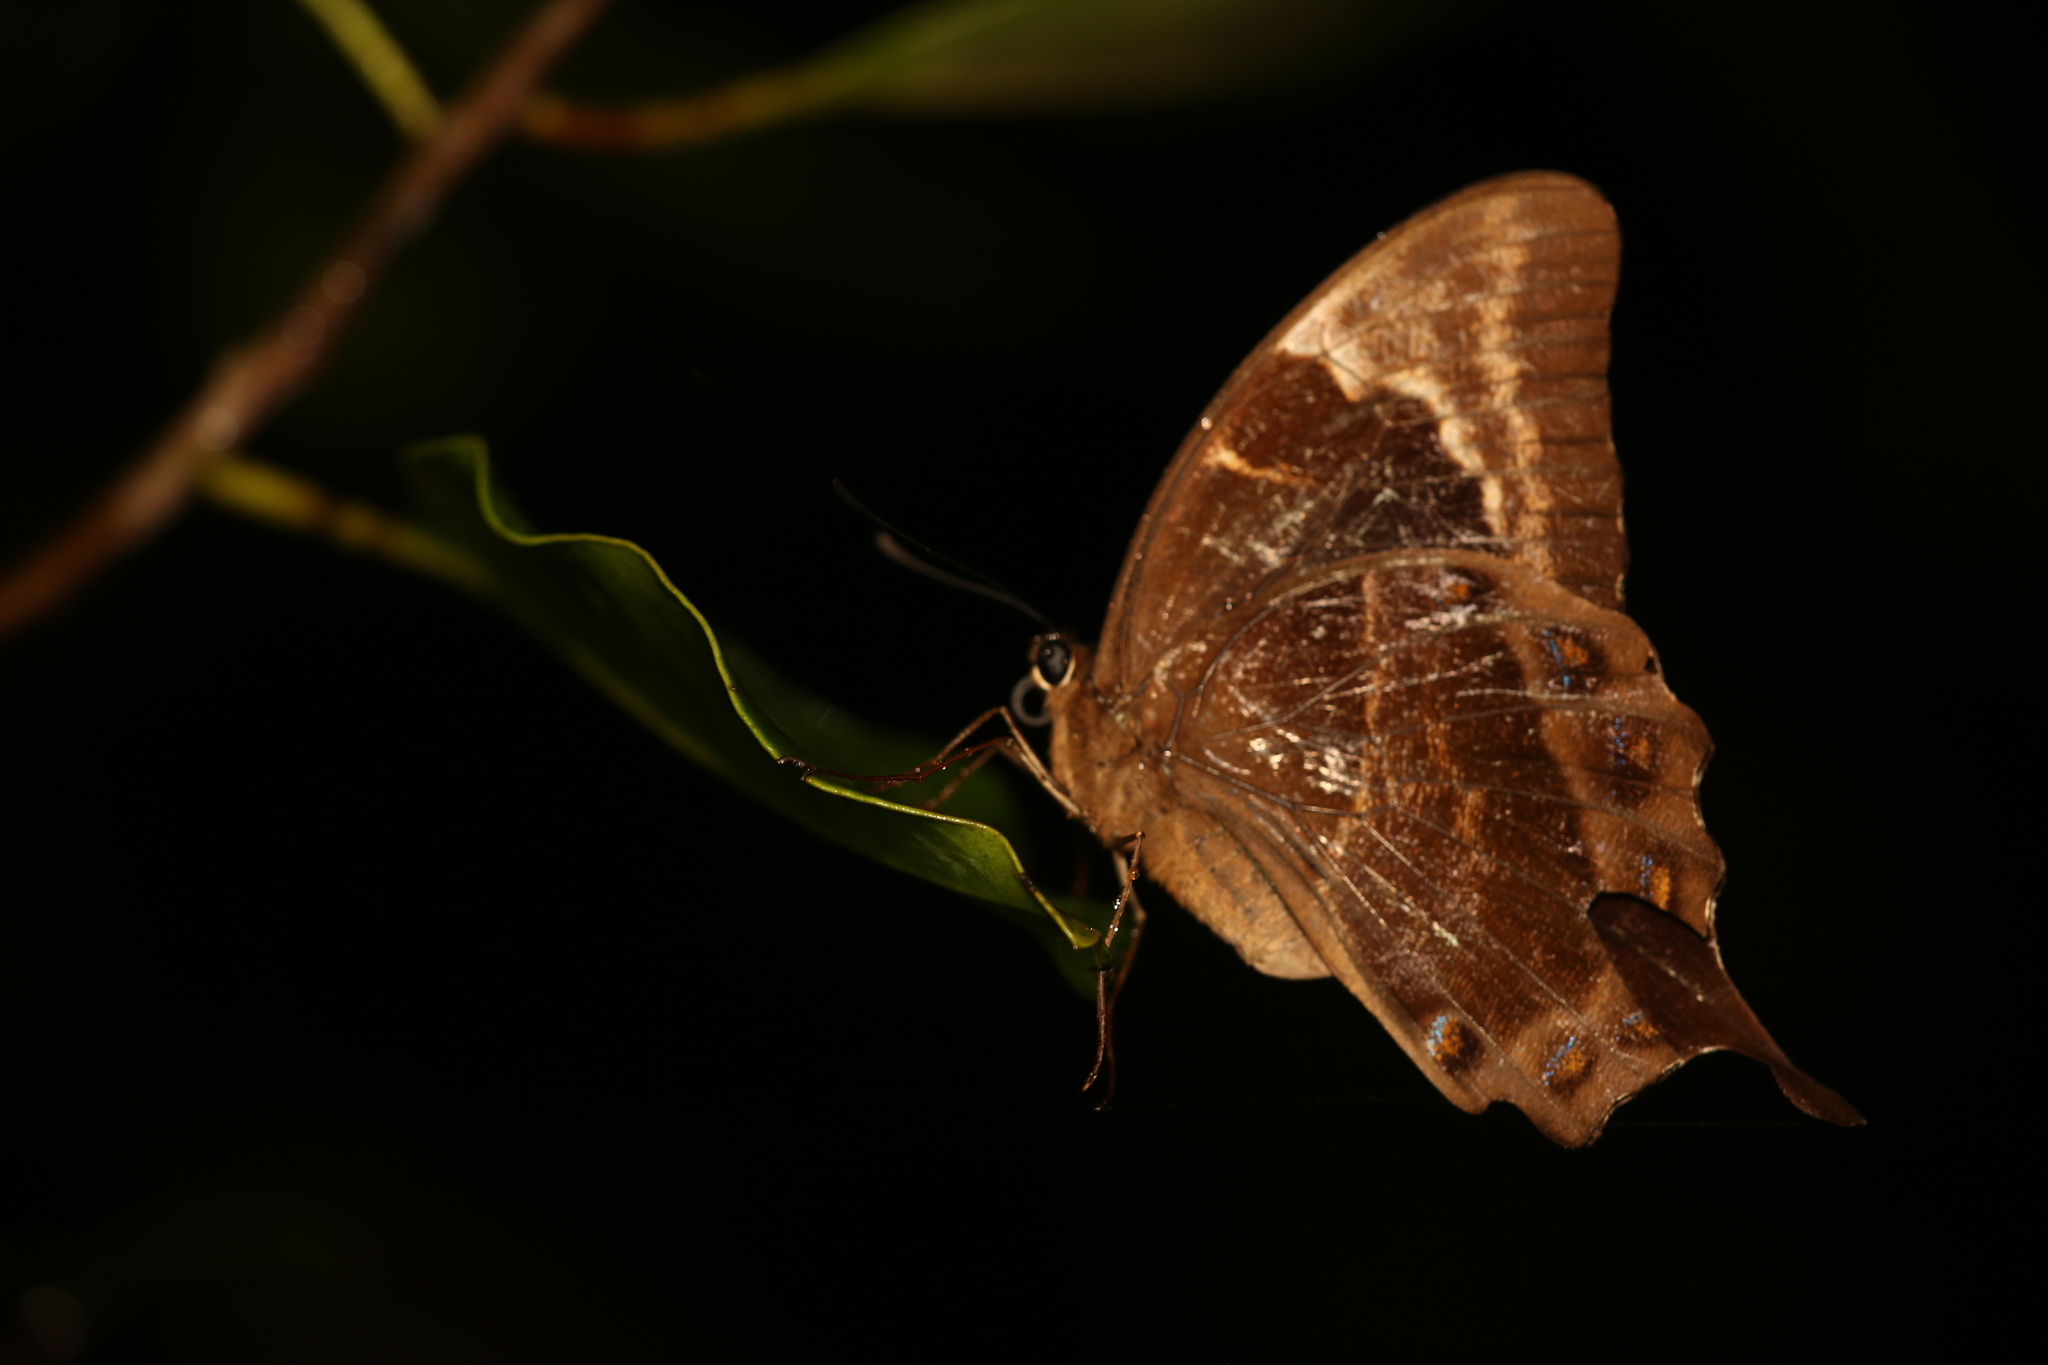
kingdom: Animalia
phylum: Arthropoda
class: Insecta
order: Lepidoptera
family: Papilionidae
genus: Papilio
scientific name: Papilio montrouzieri
